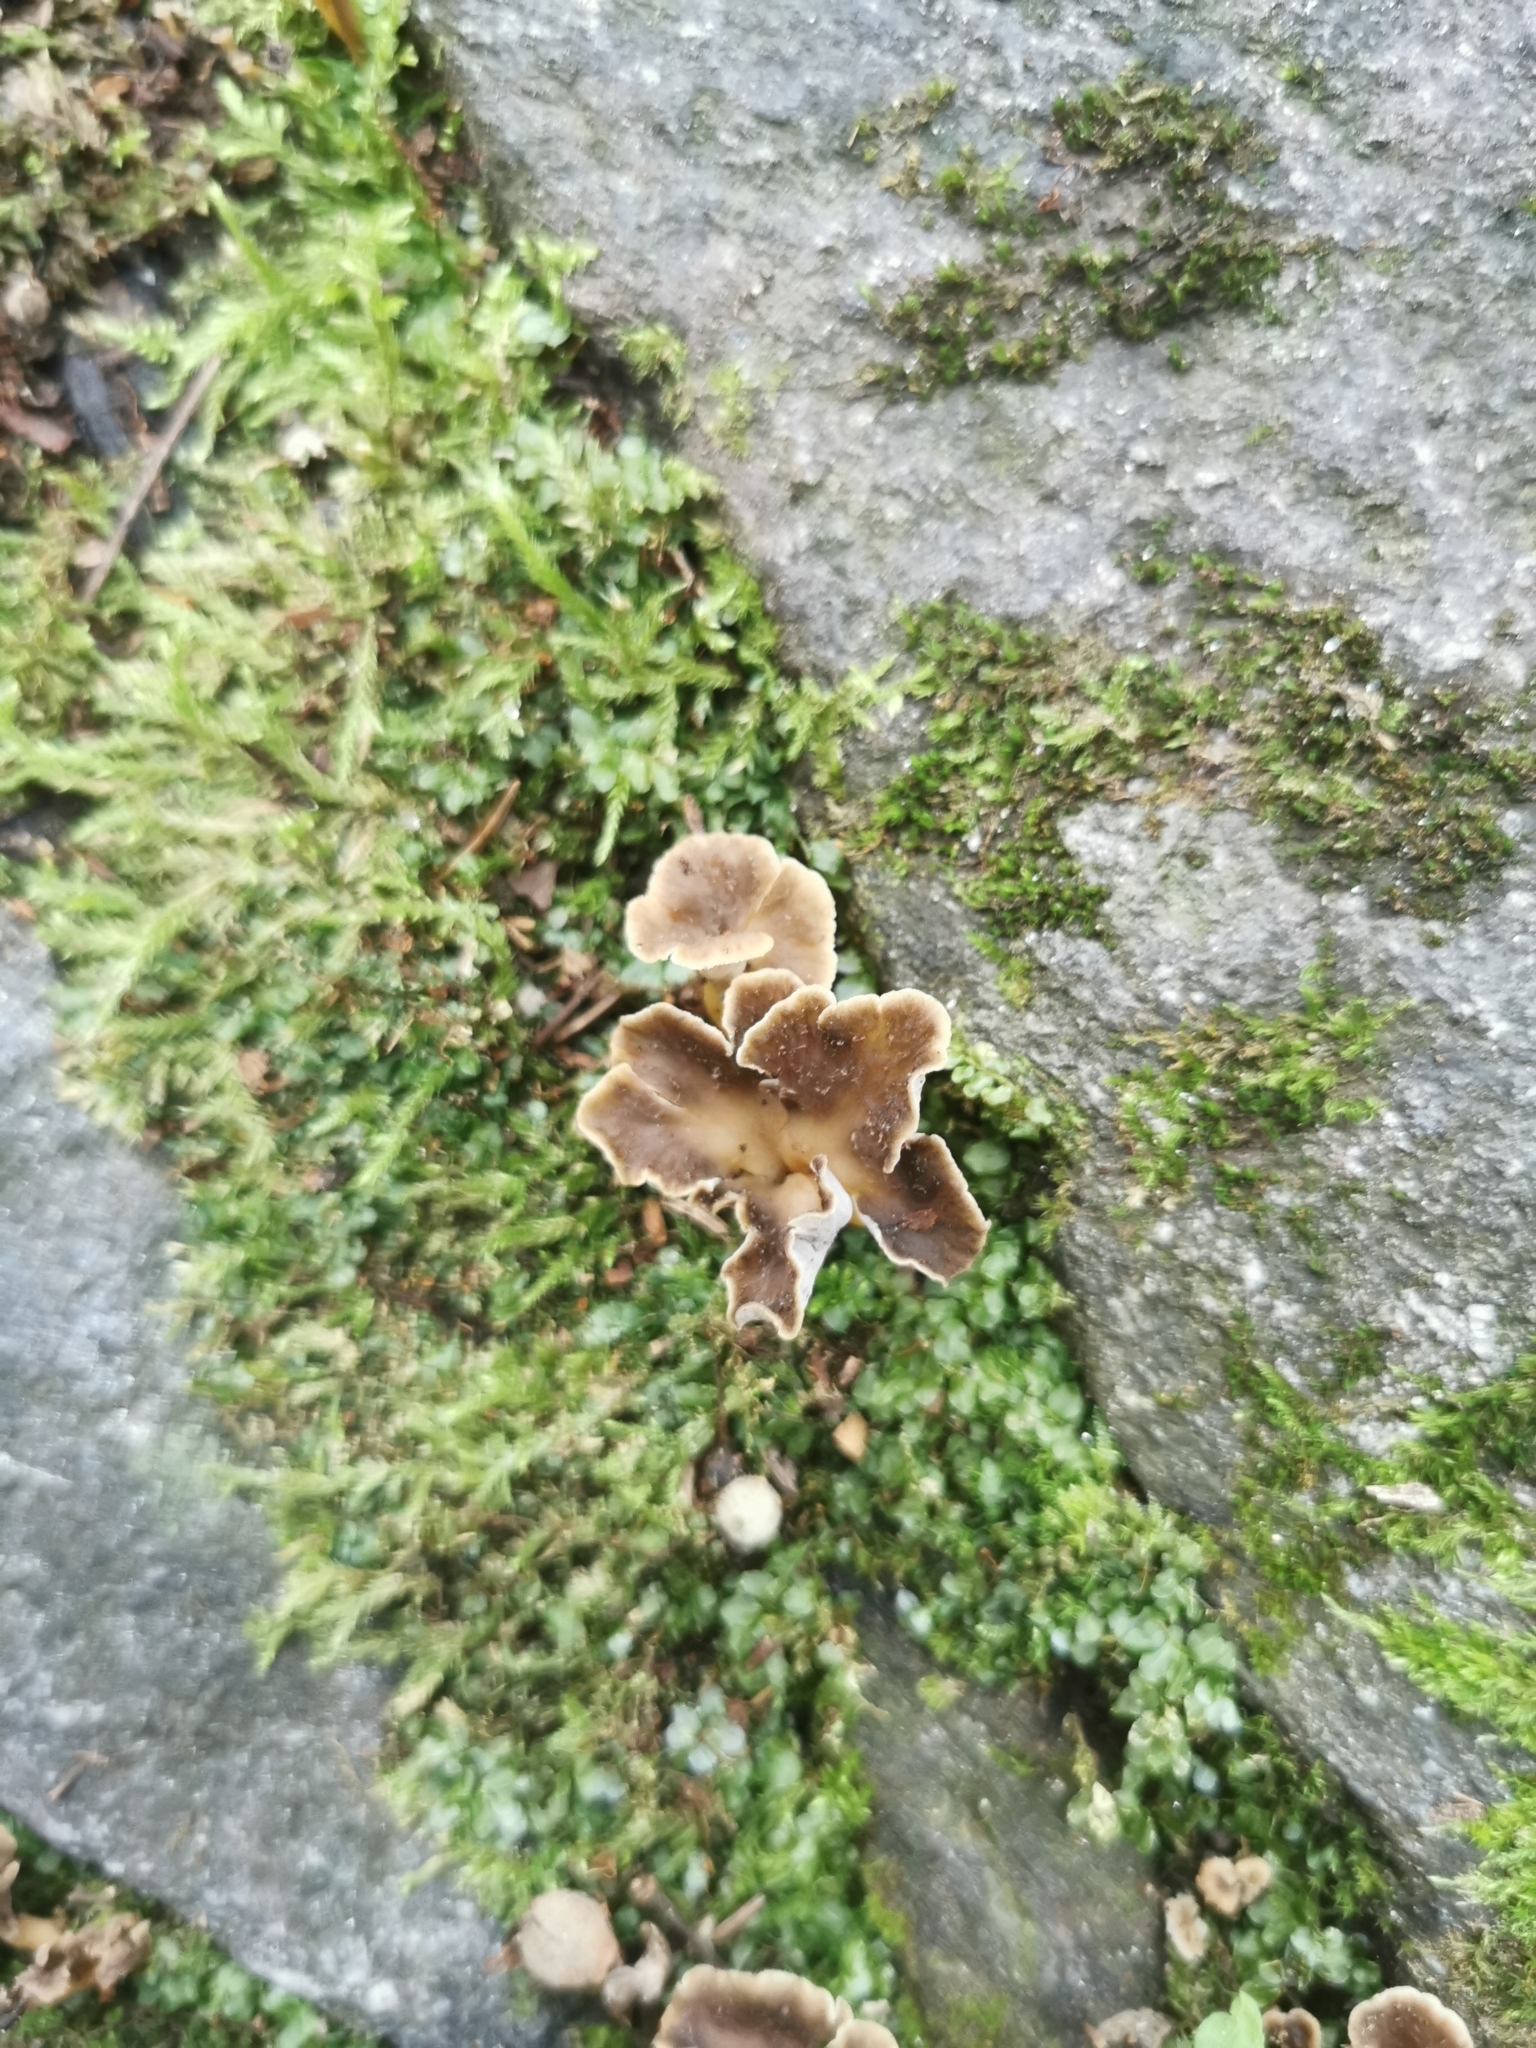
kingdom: Fungi
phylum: Basidiomycota
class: Agaricomycetes
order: Cantharellales
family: Hydnaceae
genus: Craterellus
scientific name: Craterellus undulatus
